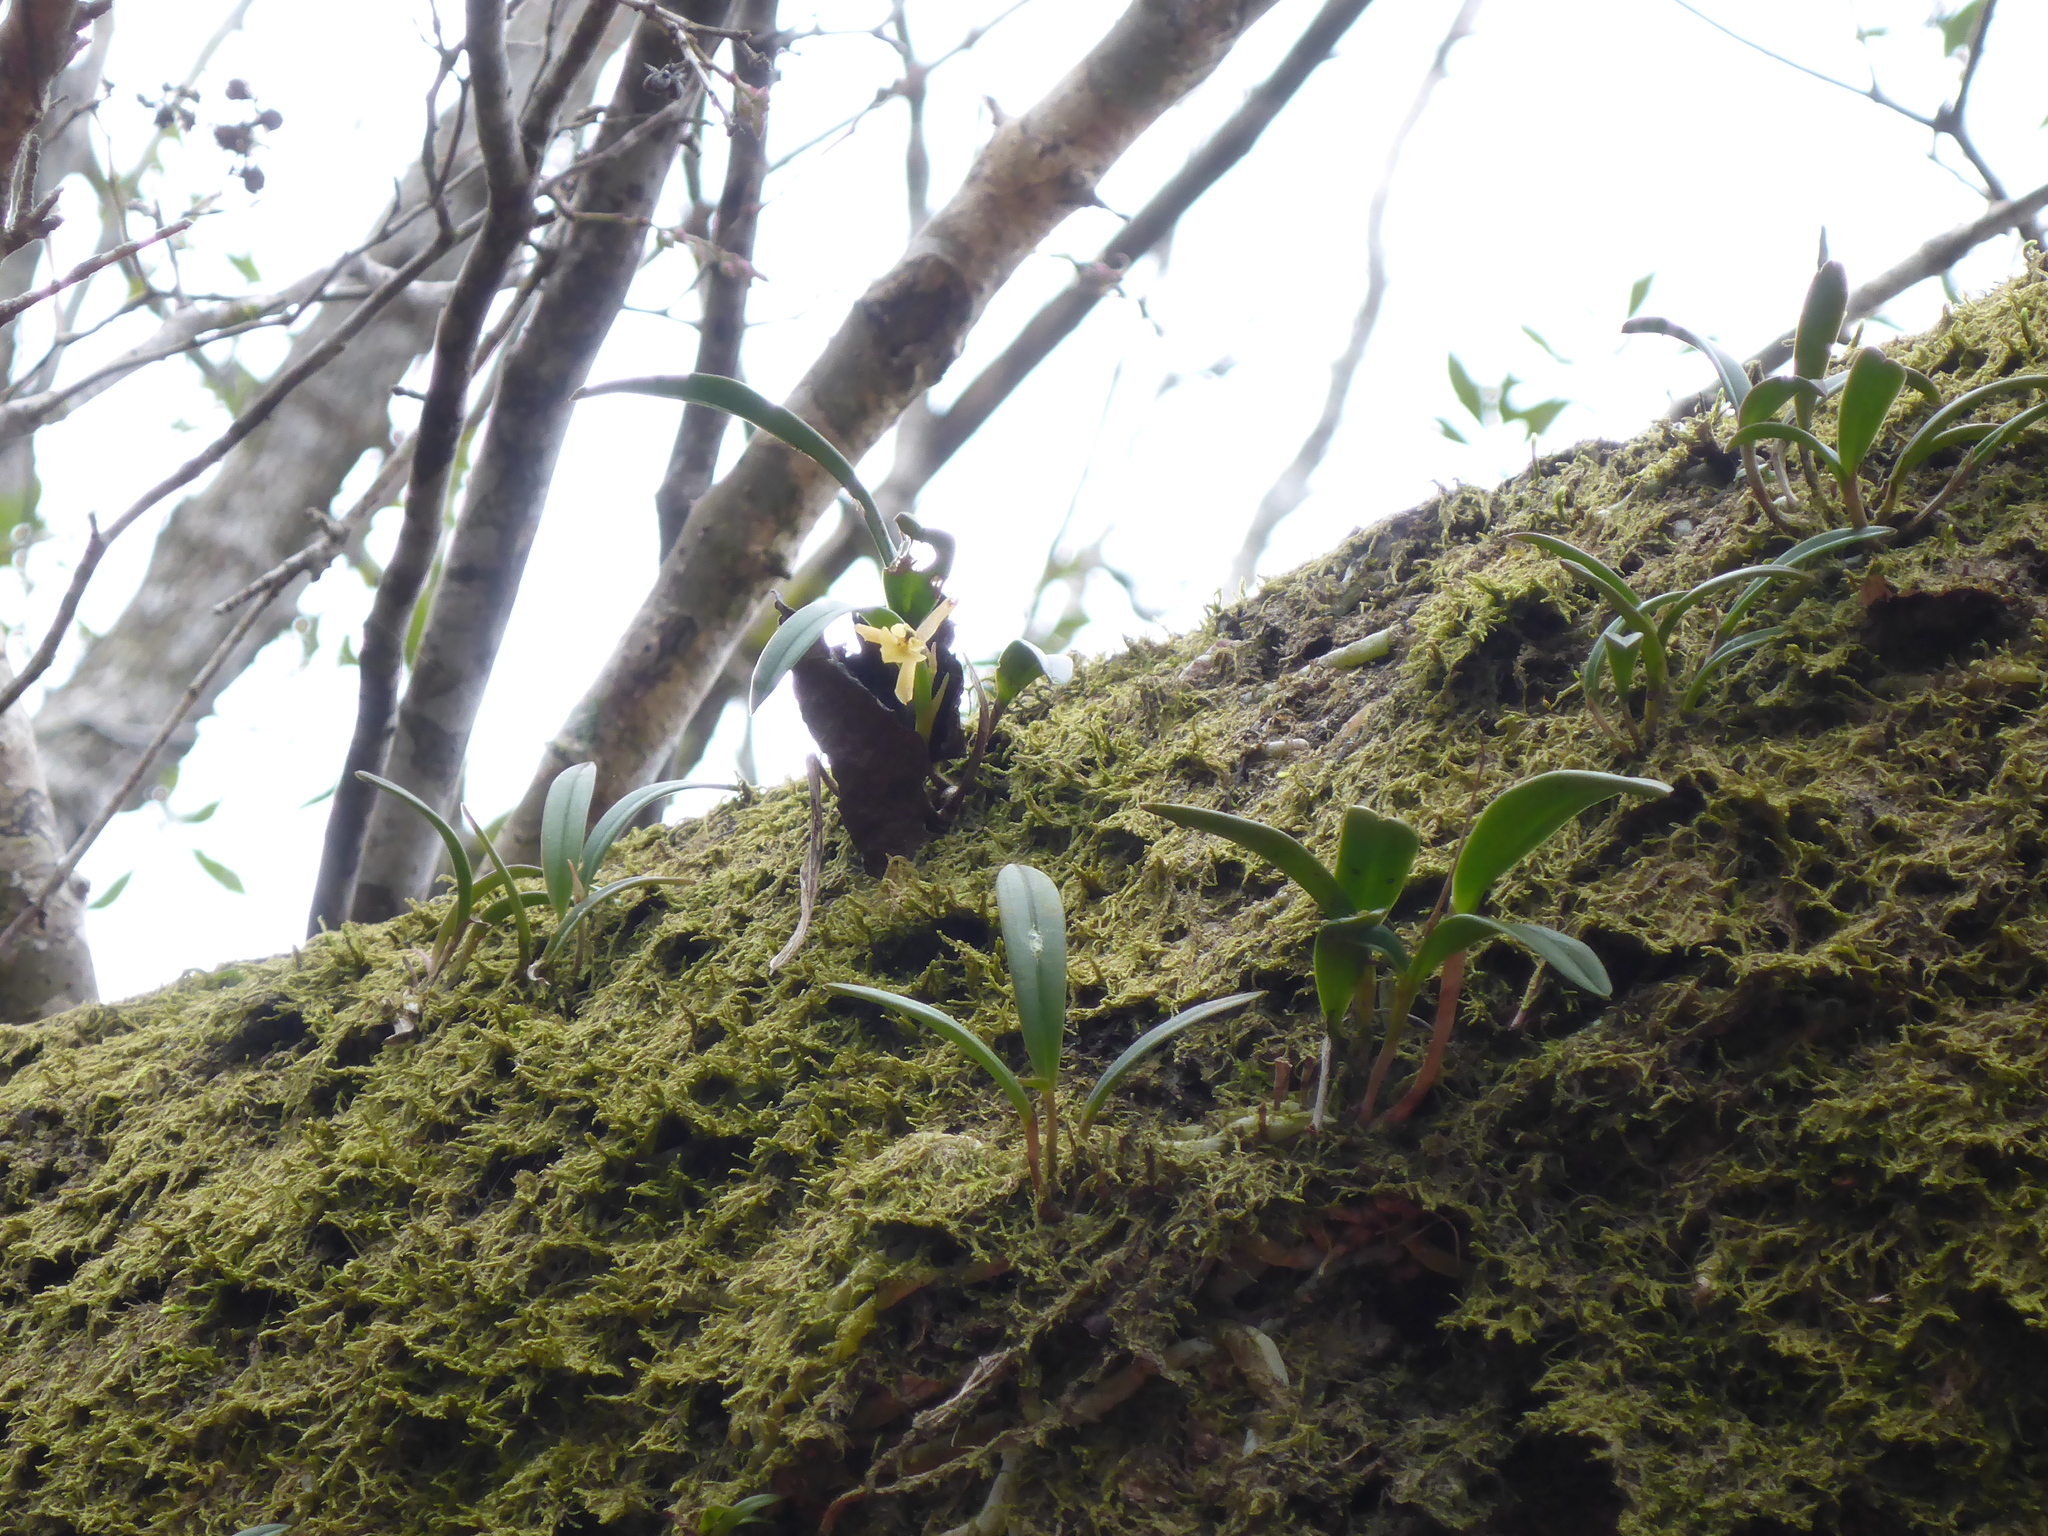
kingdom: Plantae
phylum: Tracheophyta
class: Liliopsida
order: Asparagales
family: Orchidaceae
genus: Epidendrum
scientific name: Epidendrum conopseum
